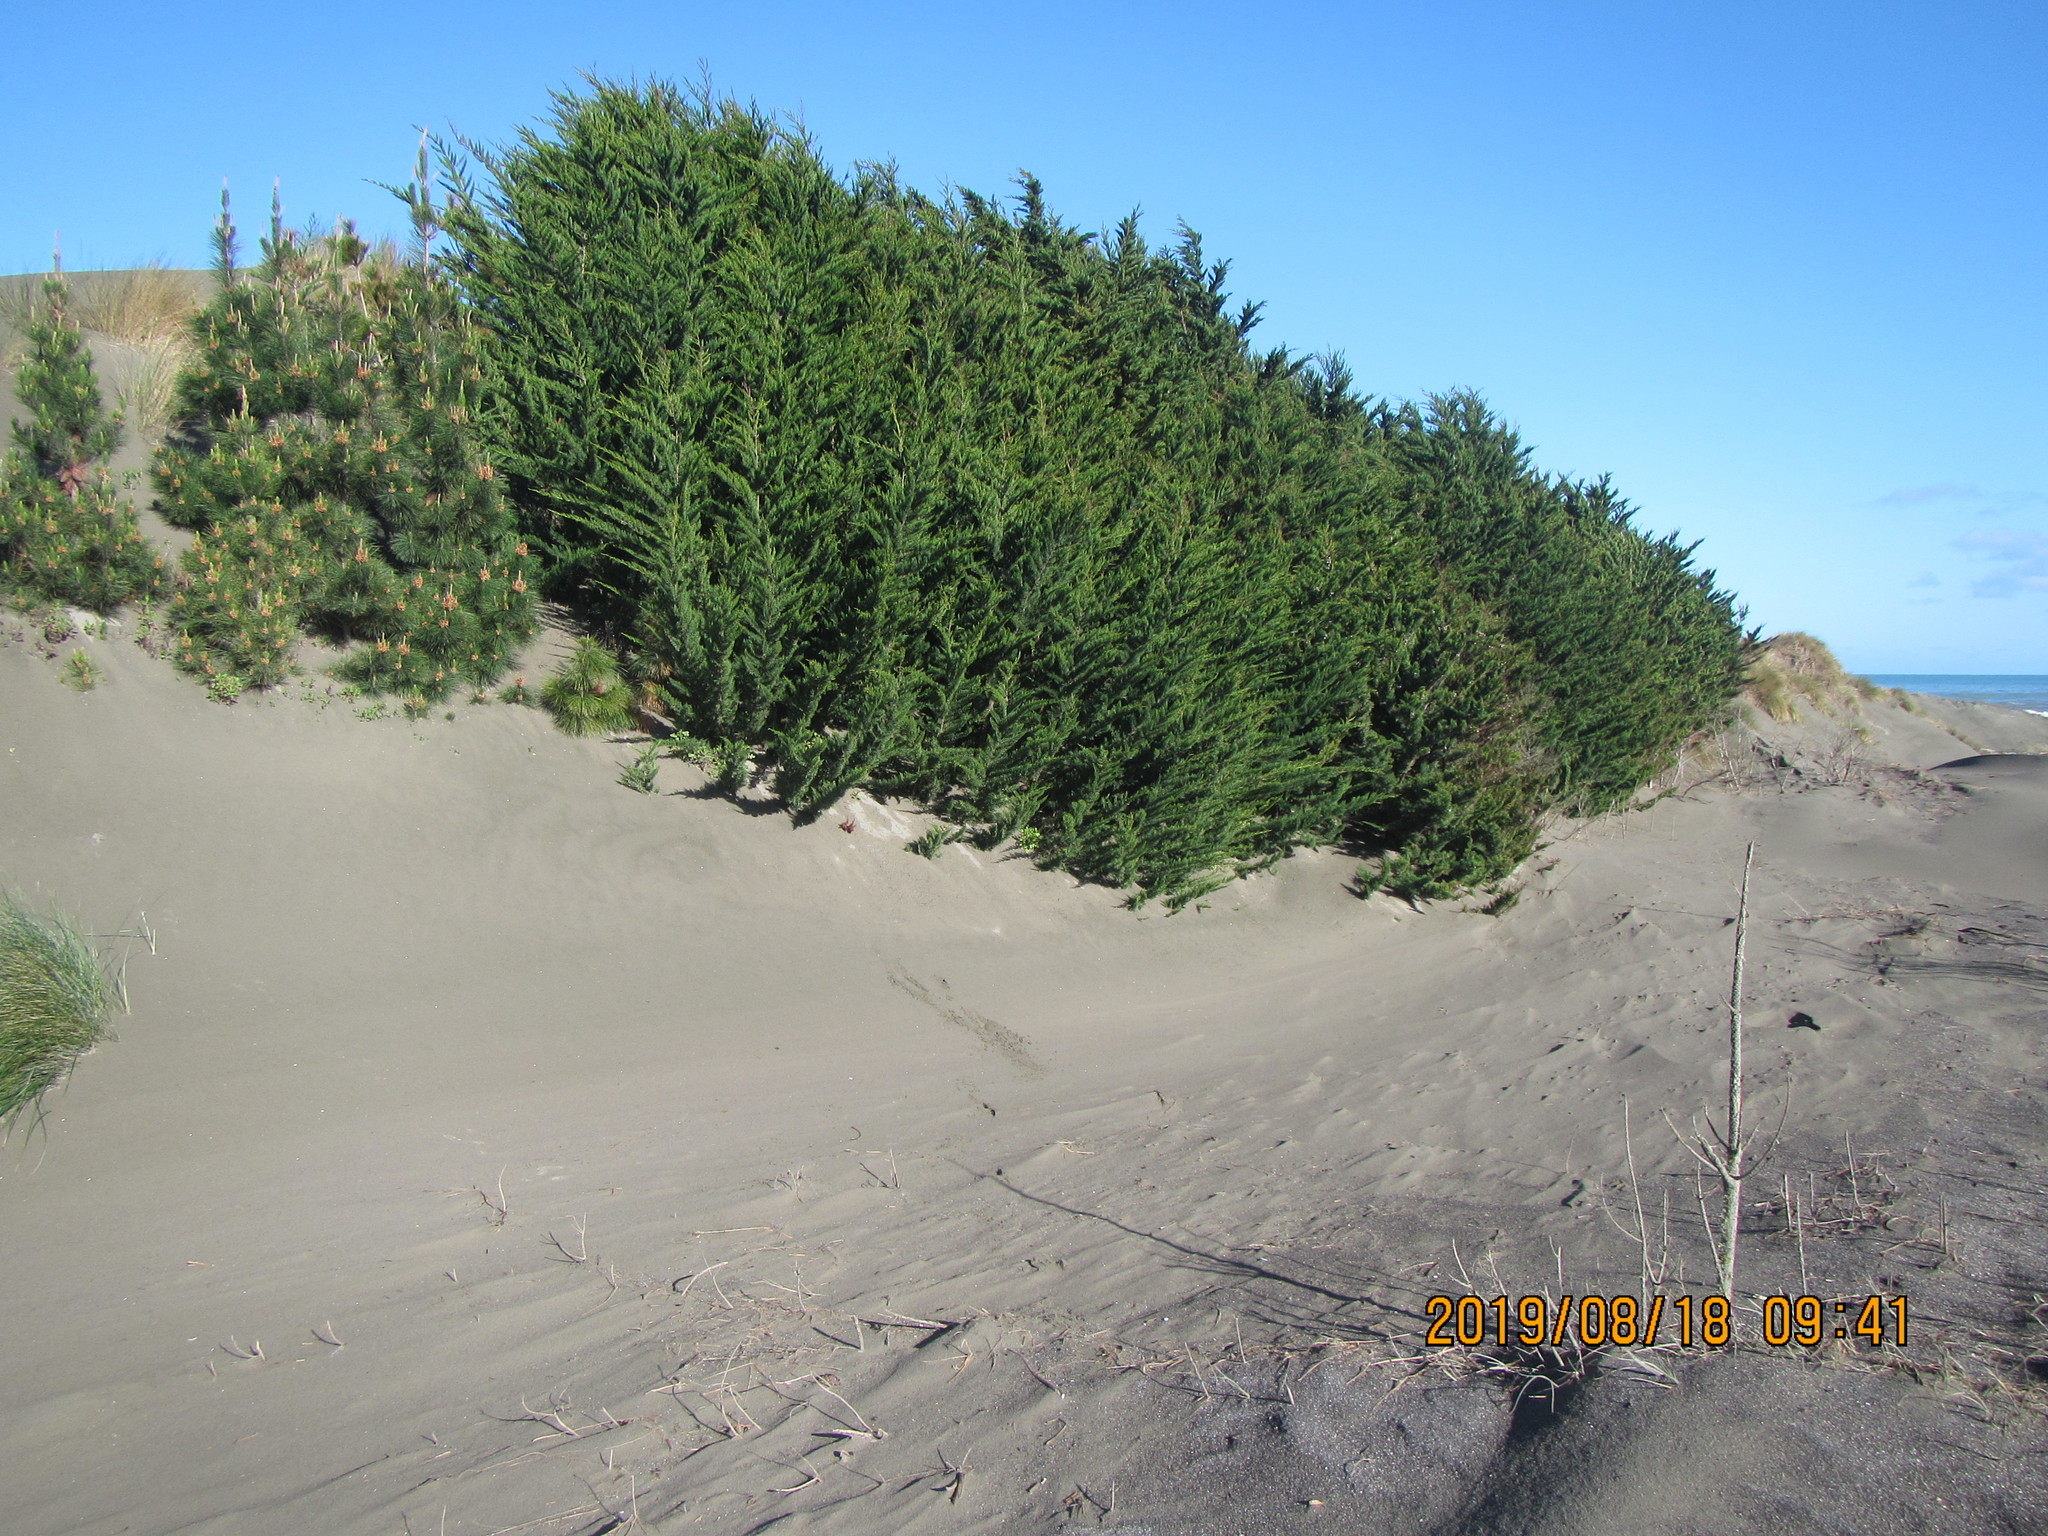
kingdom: Plantae
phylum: Tracheophyta
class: Pinopsida
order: Pinales
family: Cupressaceae
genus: Cupressus
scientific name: Cupressus macrocarpa
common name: Monterey cypress
